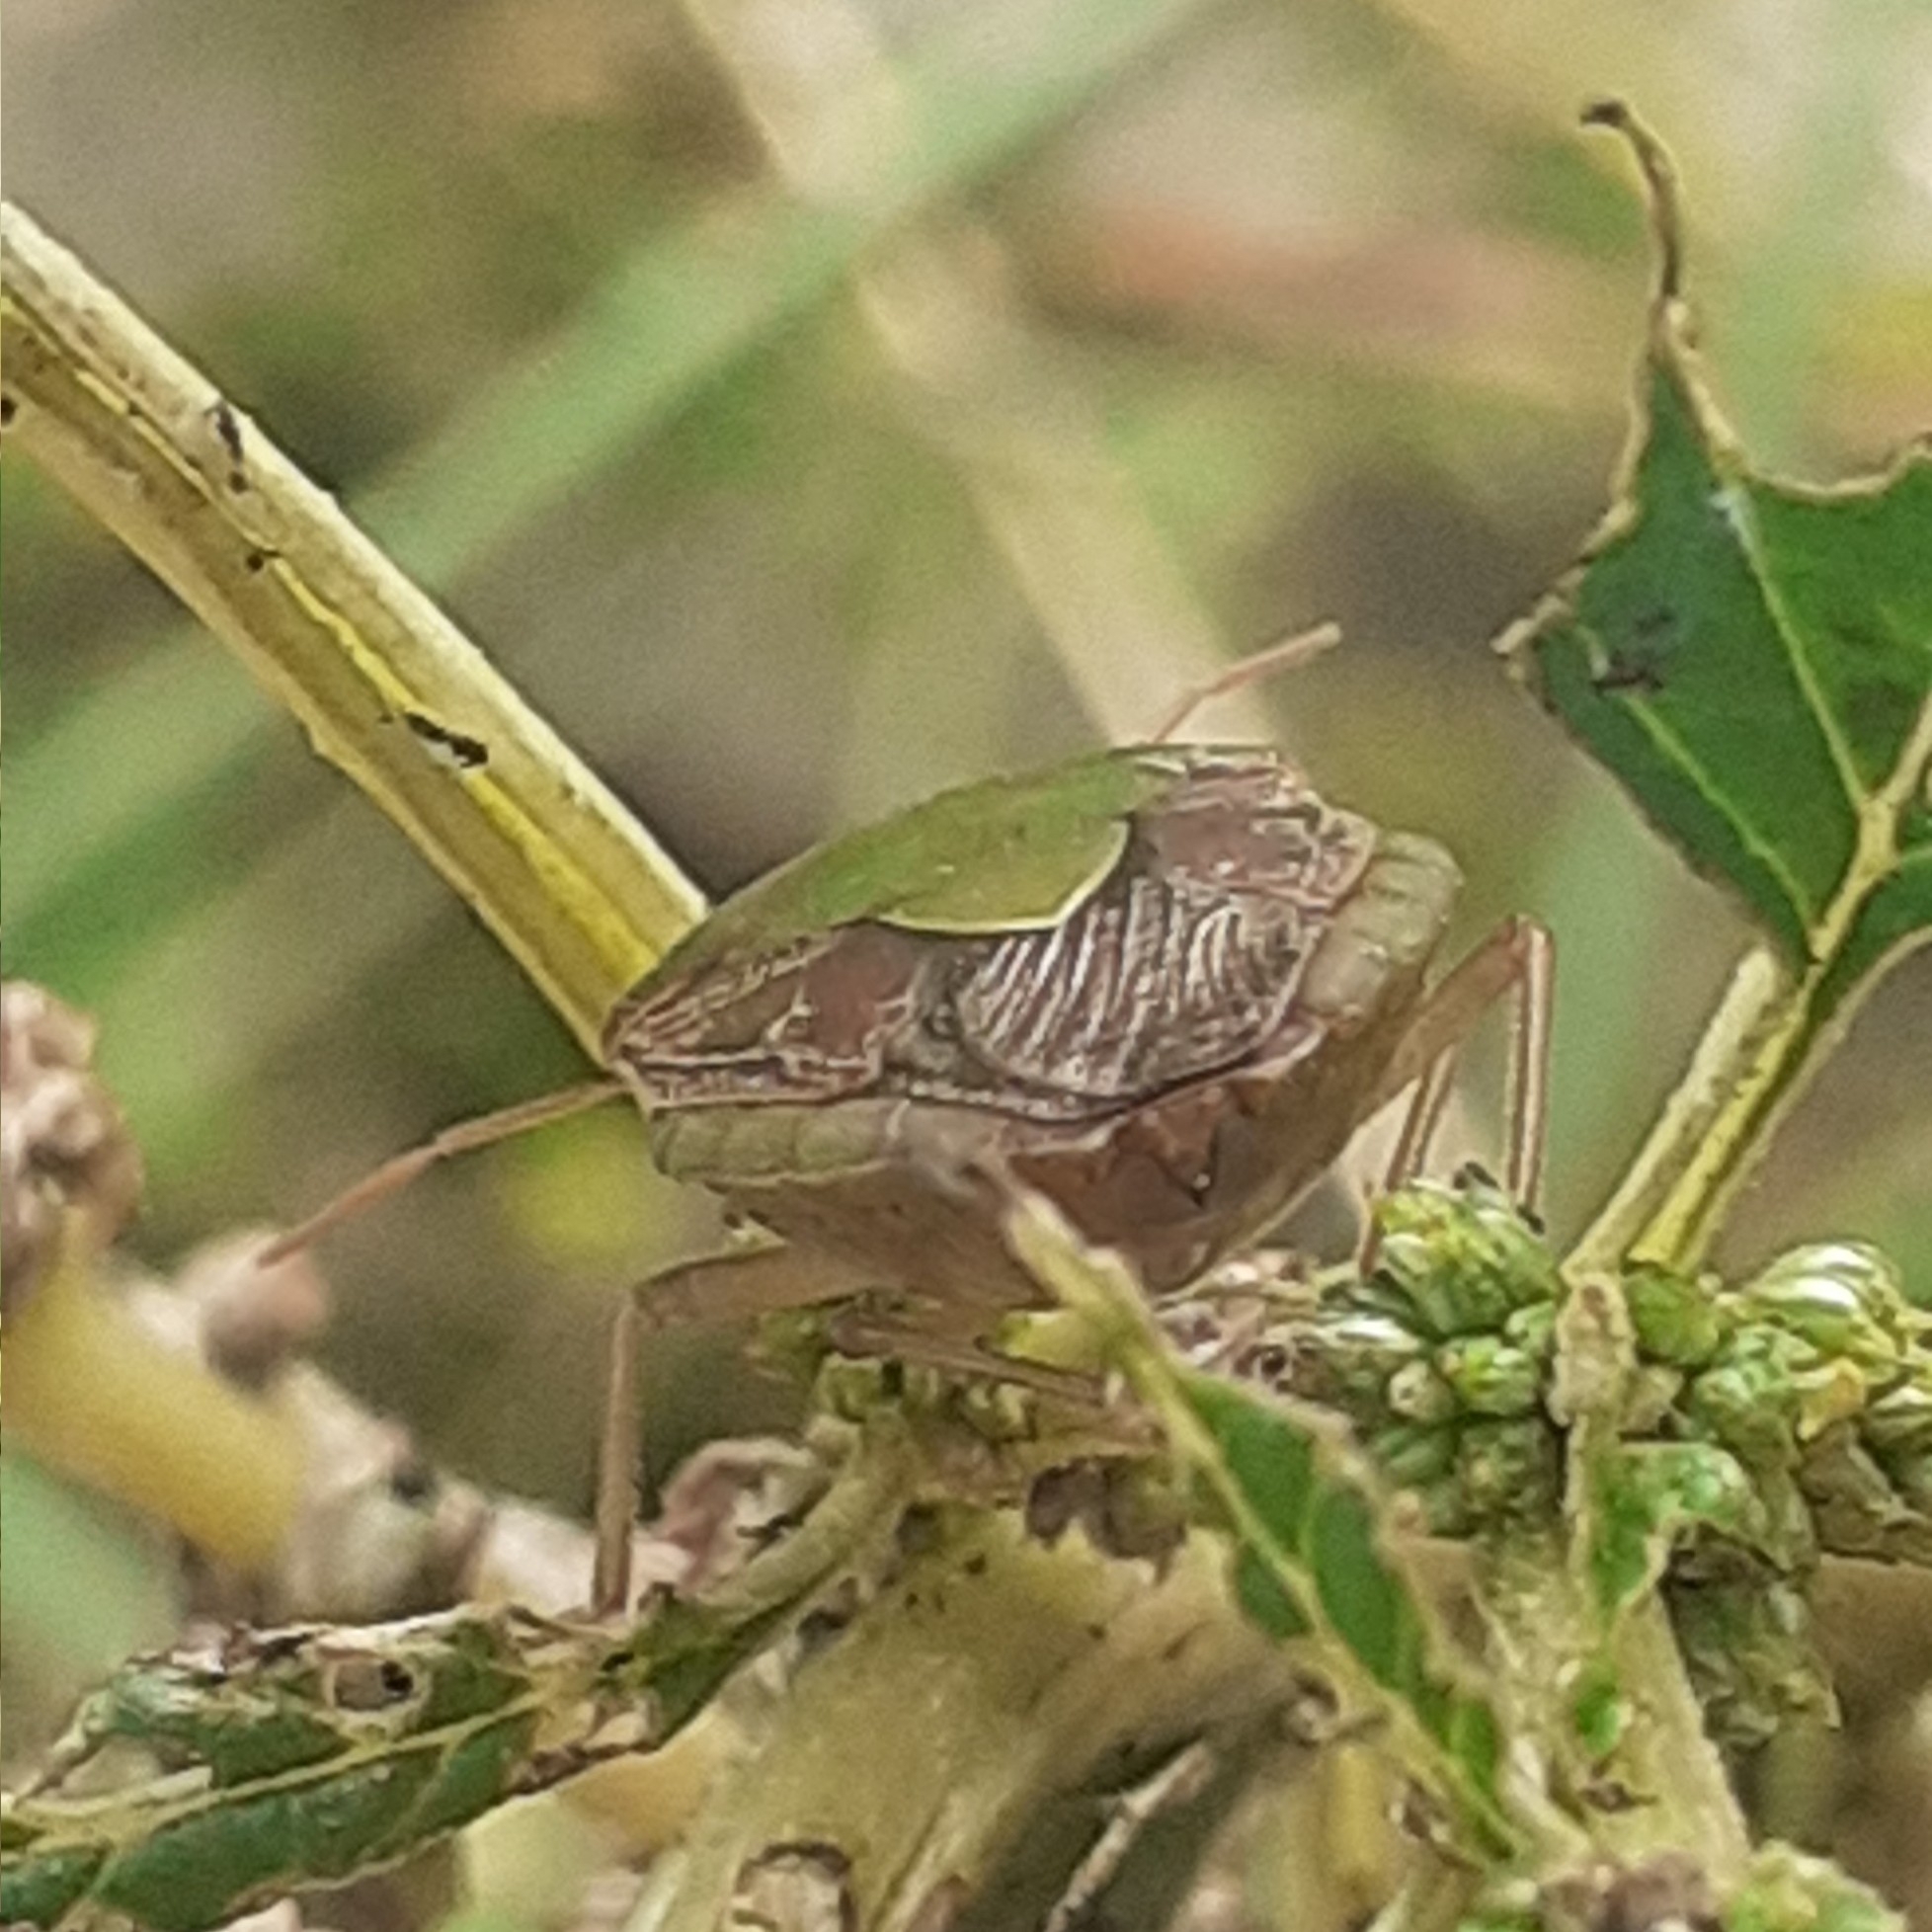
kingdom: Animalia
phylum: Arthropoda
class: Insecta
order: Hemiptera
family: Pentatomidae
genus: Edessa
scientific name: Edessa meditabunda
